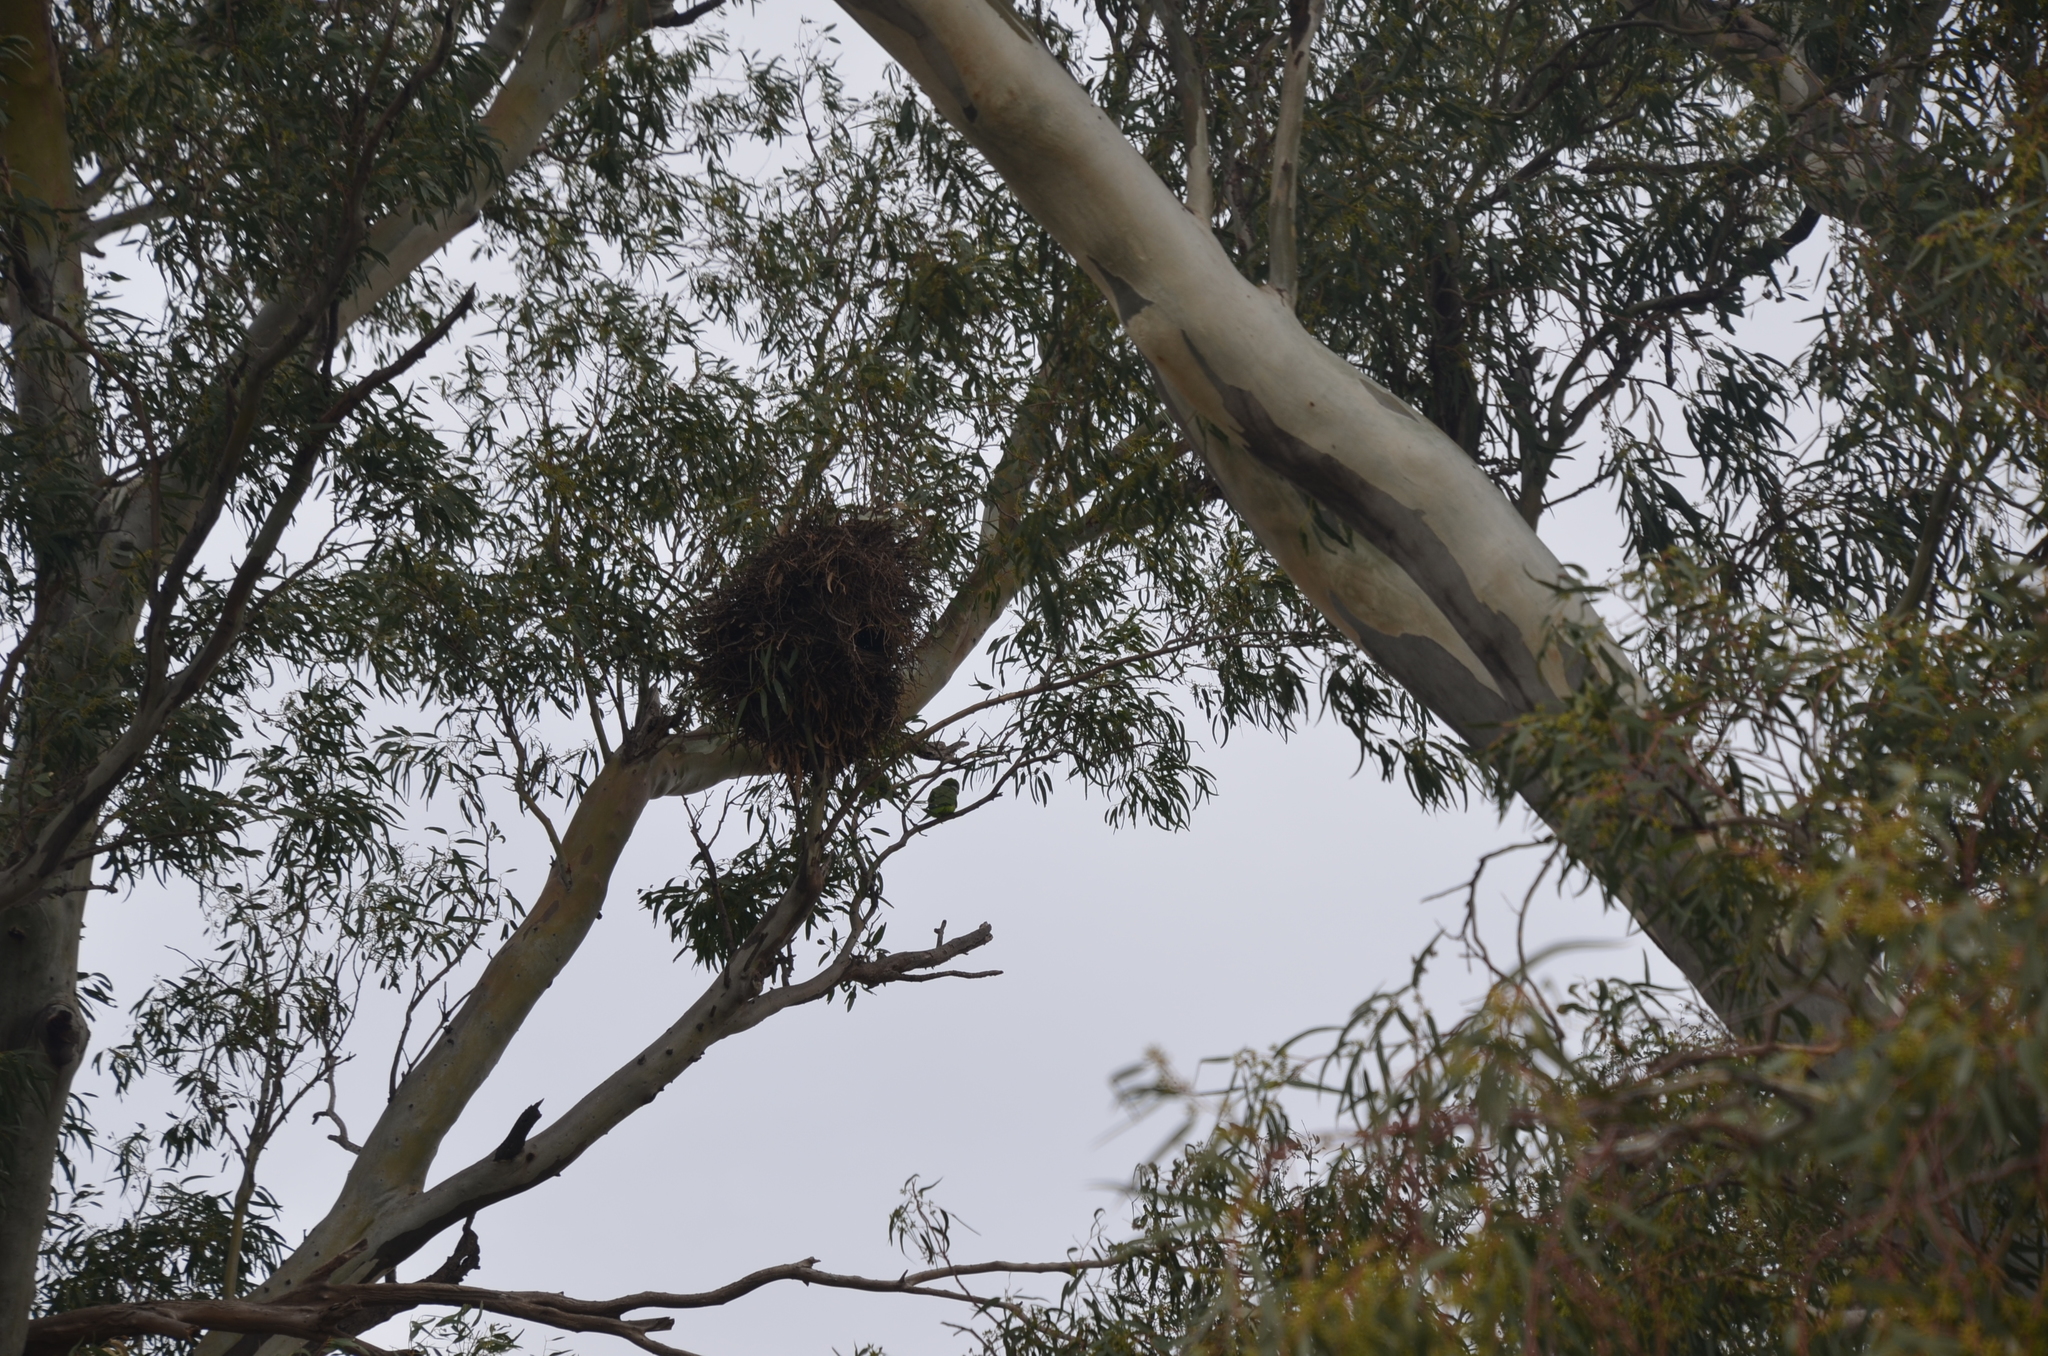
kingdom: Animalia
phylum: Chordata
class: Aves
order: Psittaciformes
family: Psittacidae
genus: Myiopsitta
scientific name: Myiopsitta monachus
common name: Monk parakeet
